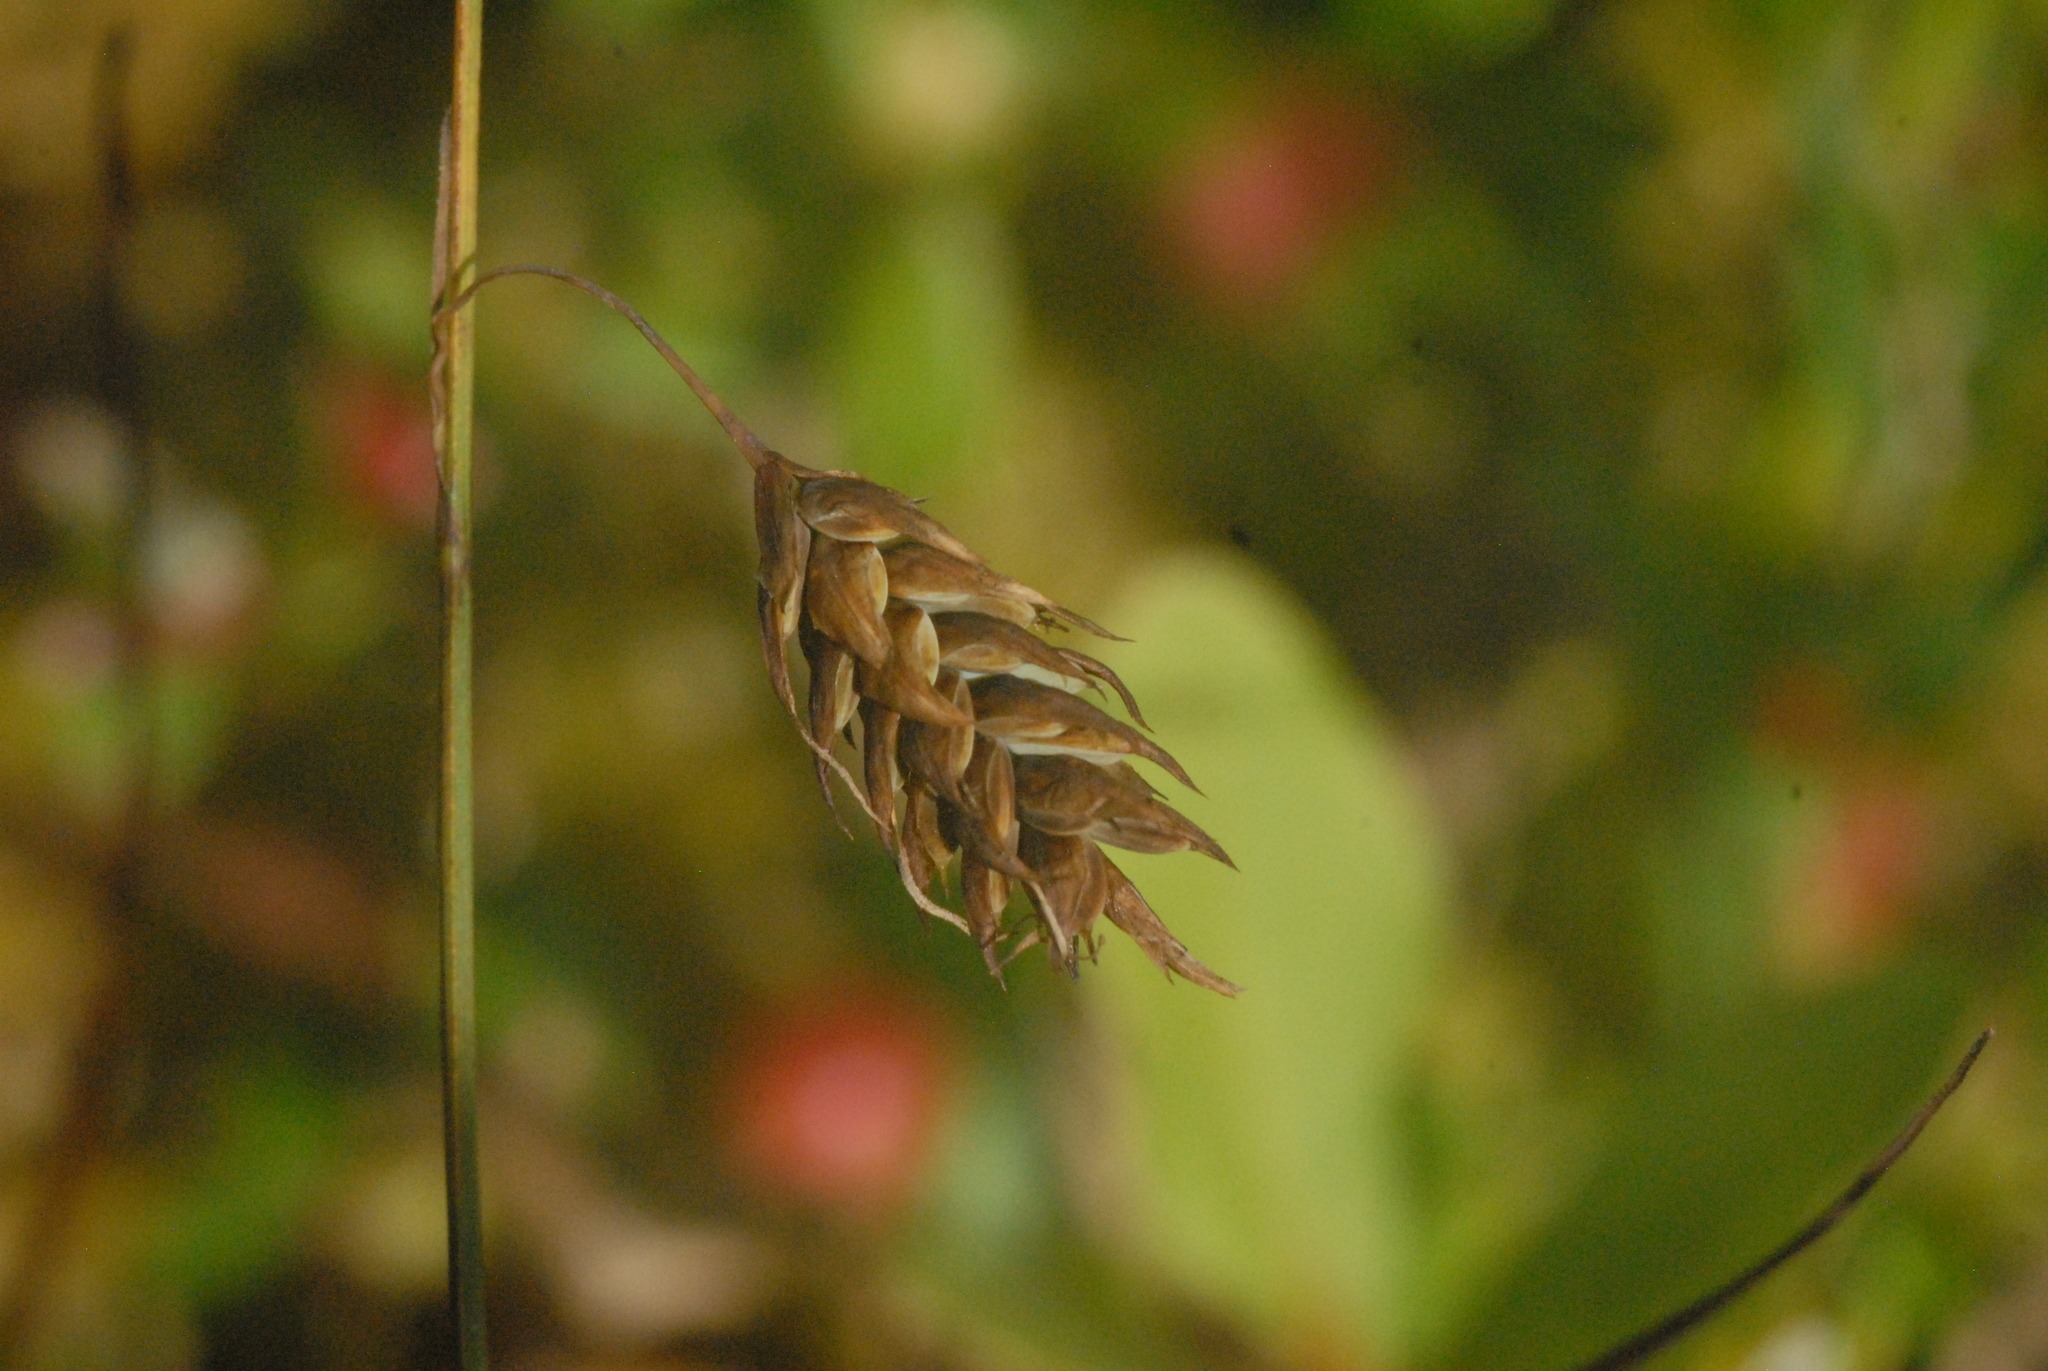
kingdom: Plantae
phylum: Tracheophyta
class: Liliopsida
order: Poales
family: Cyperaceae
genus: Carex
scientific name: Carex limosa
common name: Bog sedge
